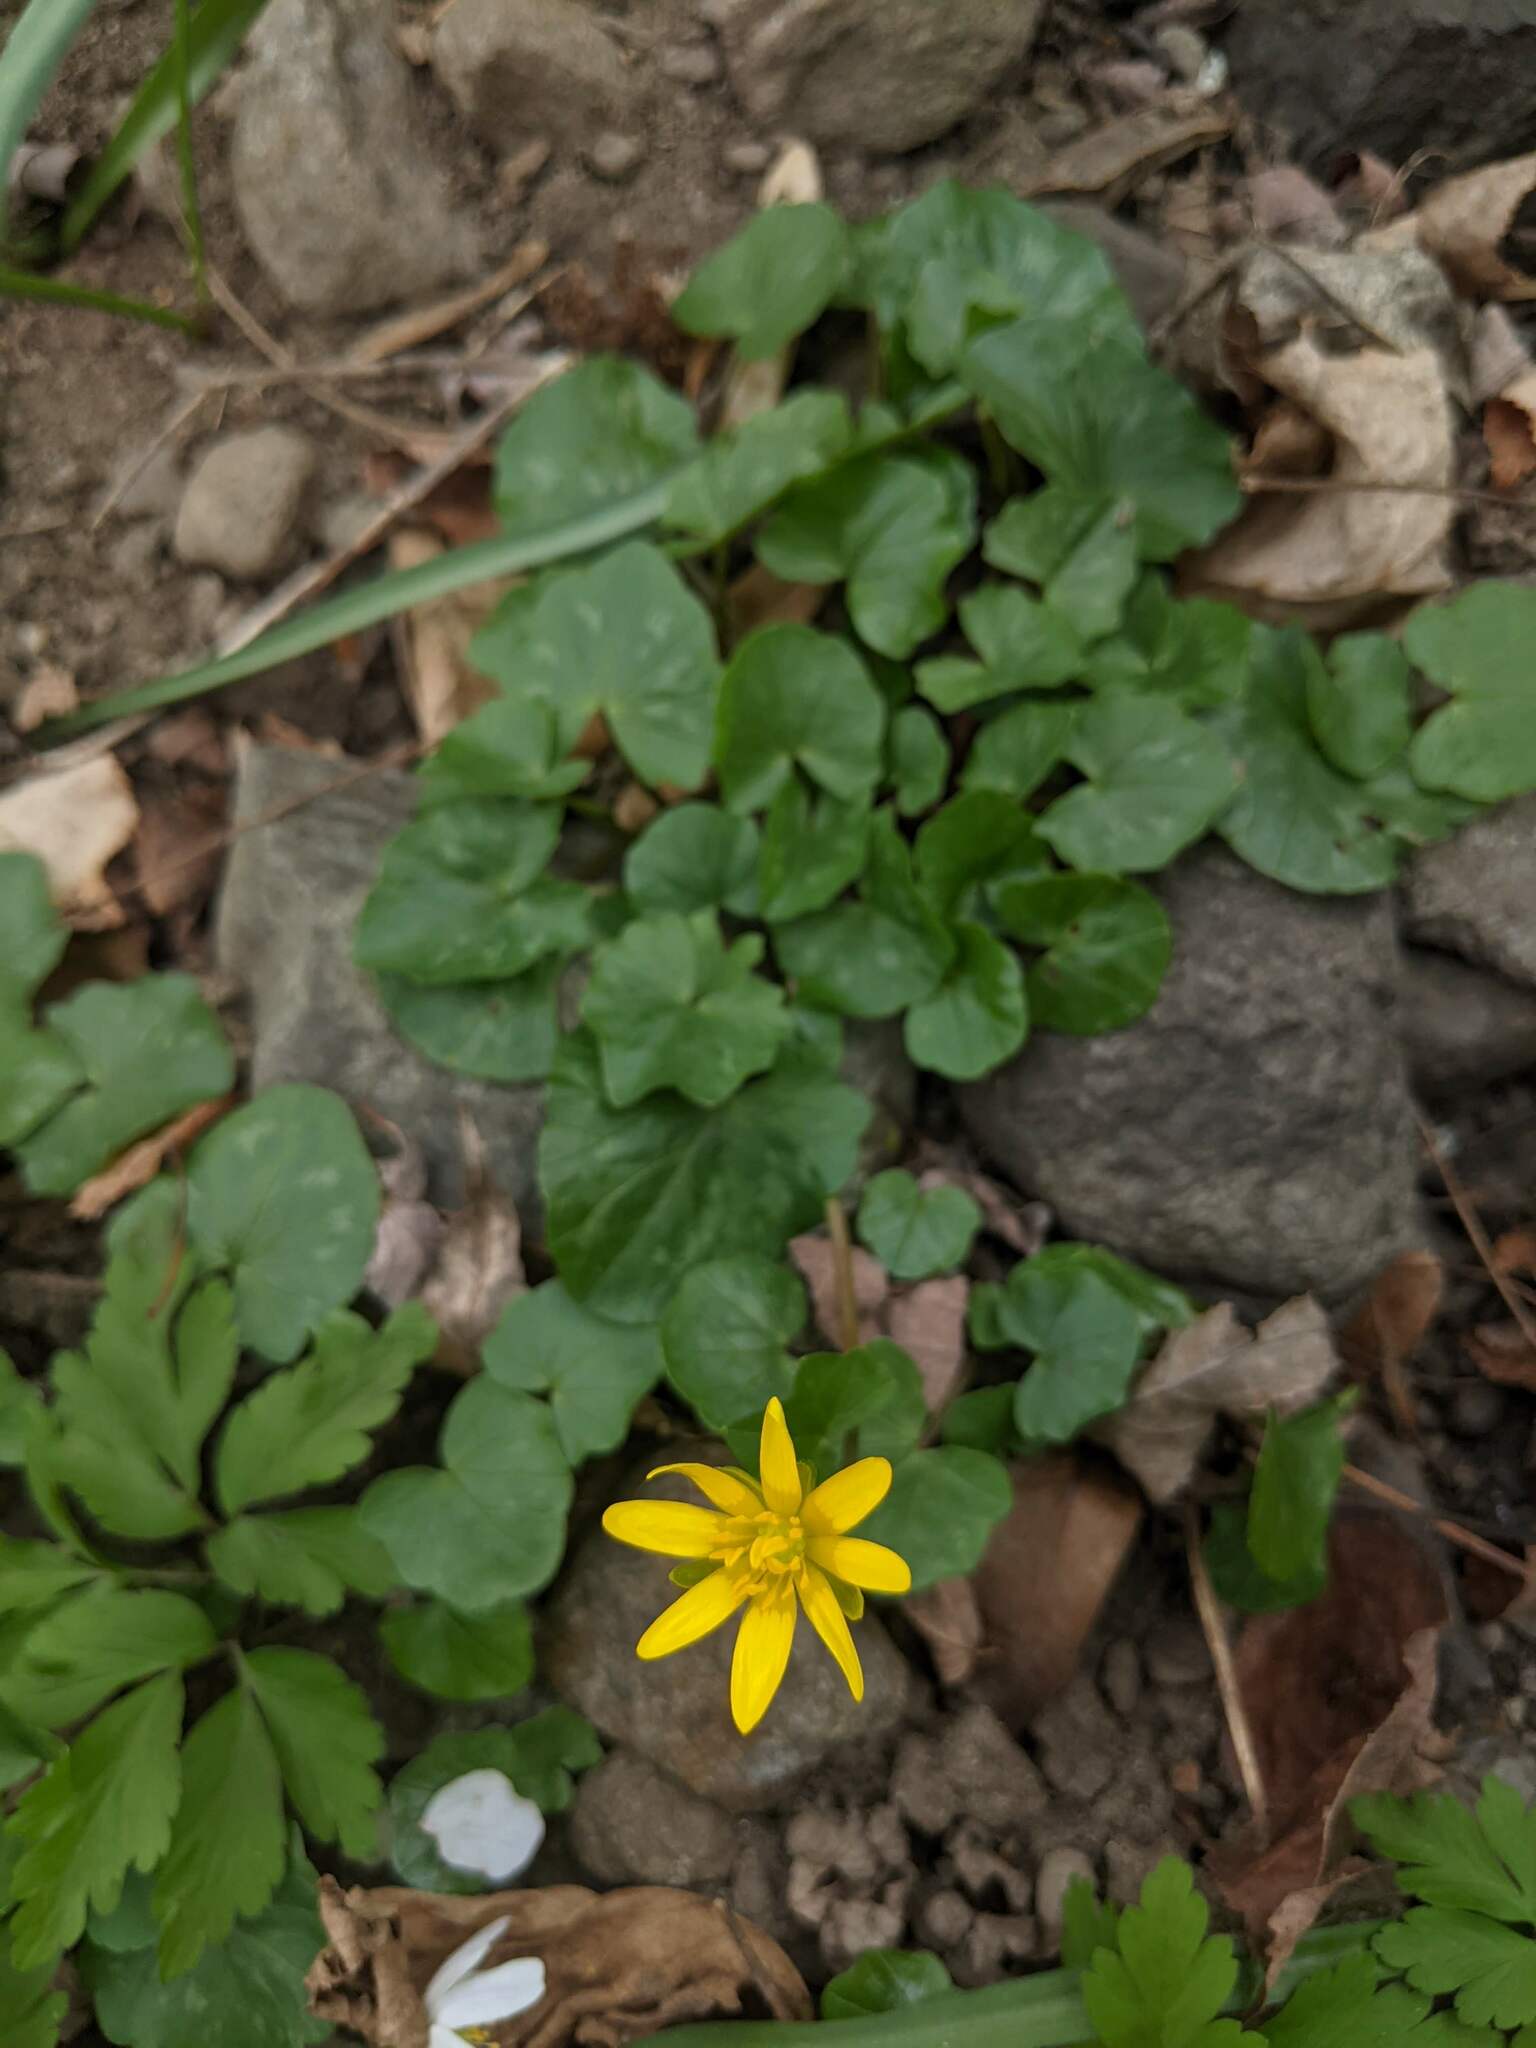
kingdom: Plantae
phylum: Tracheophyta
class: Magnoliopsida
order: Ranunculales
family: Ranunculaceae
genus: Ficaria
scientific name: Ficaria verna
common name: Lesser celandine
